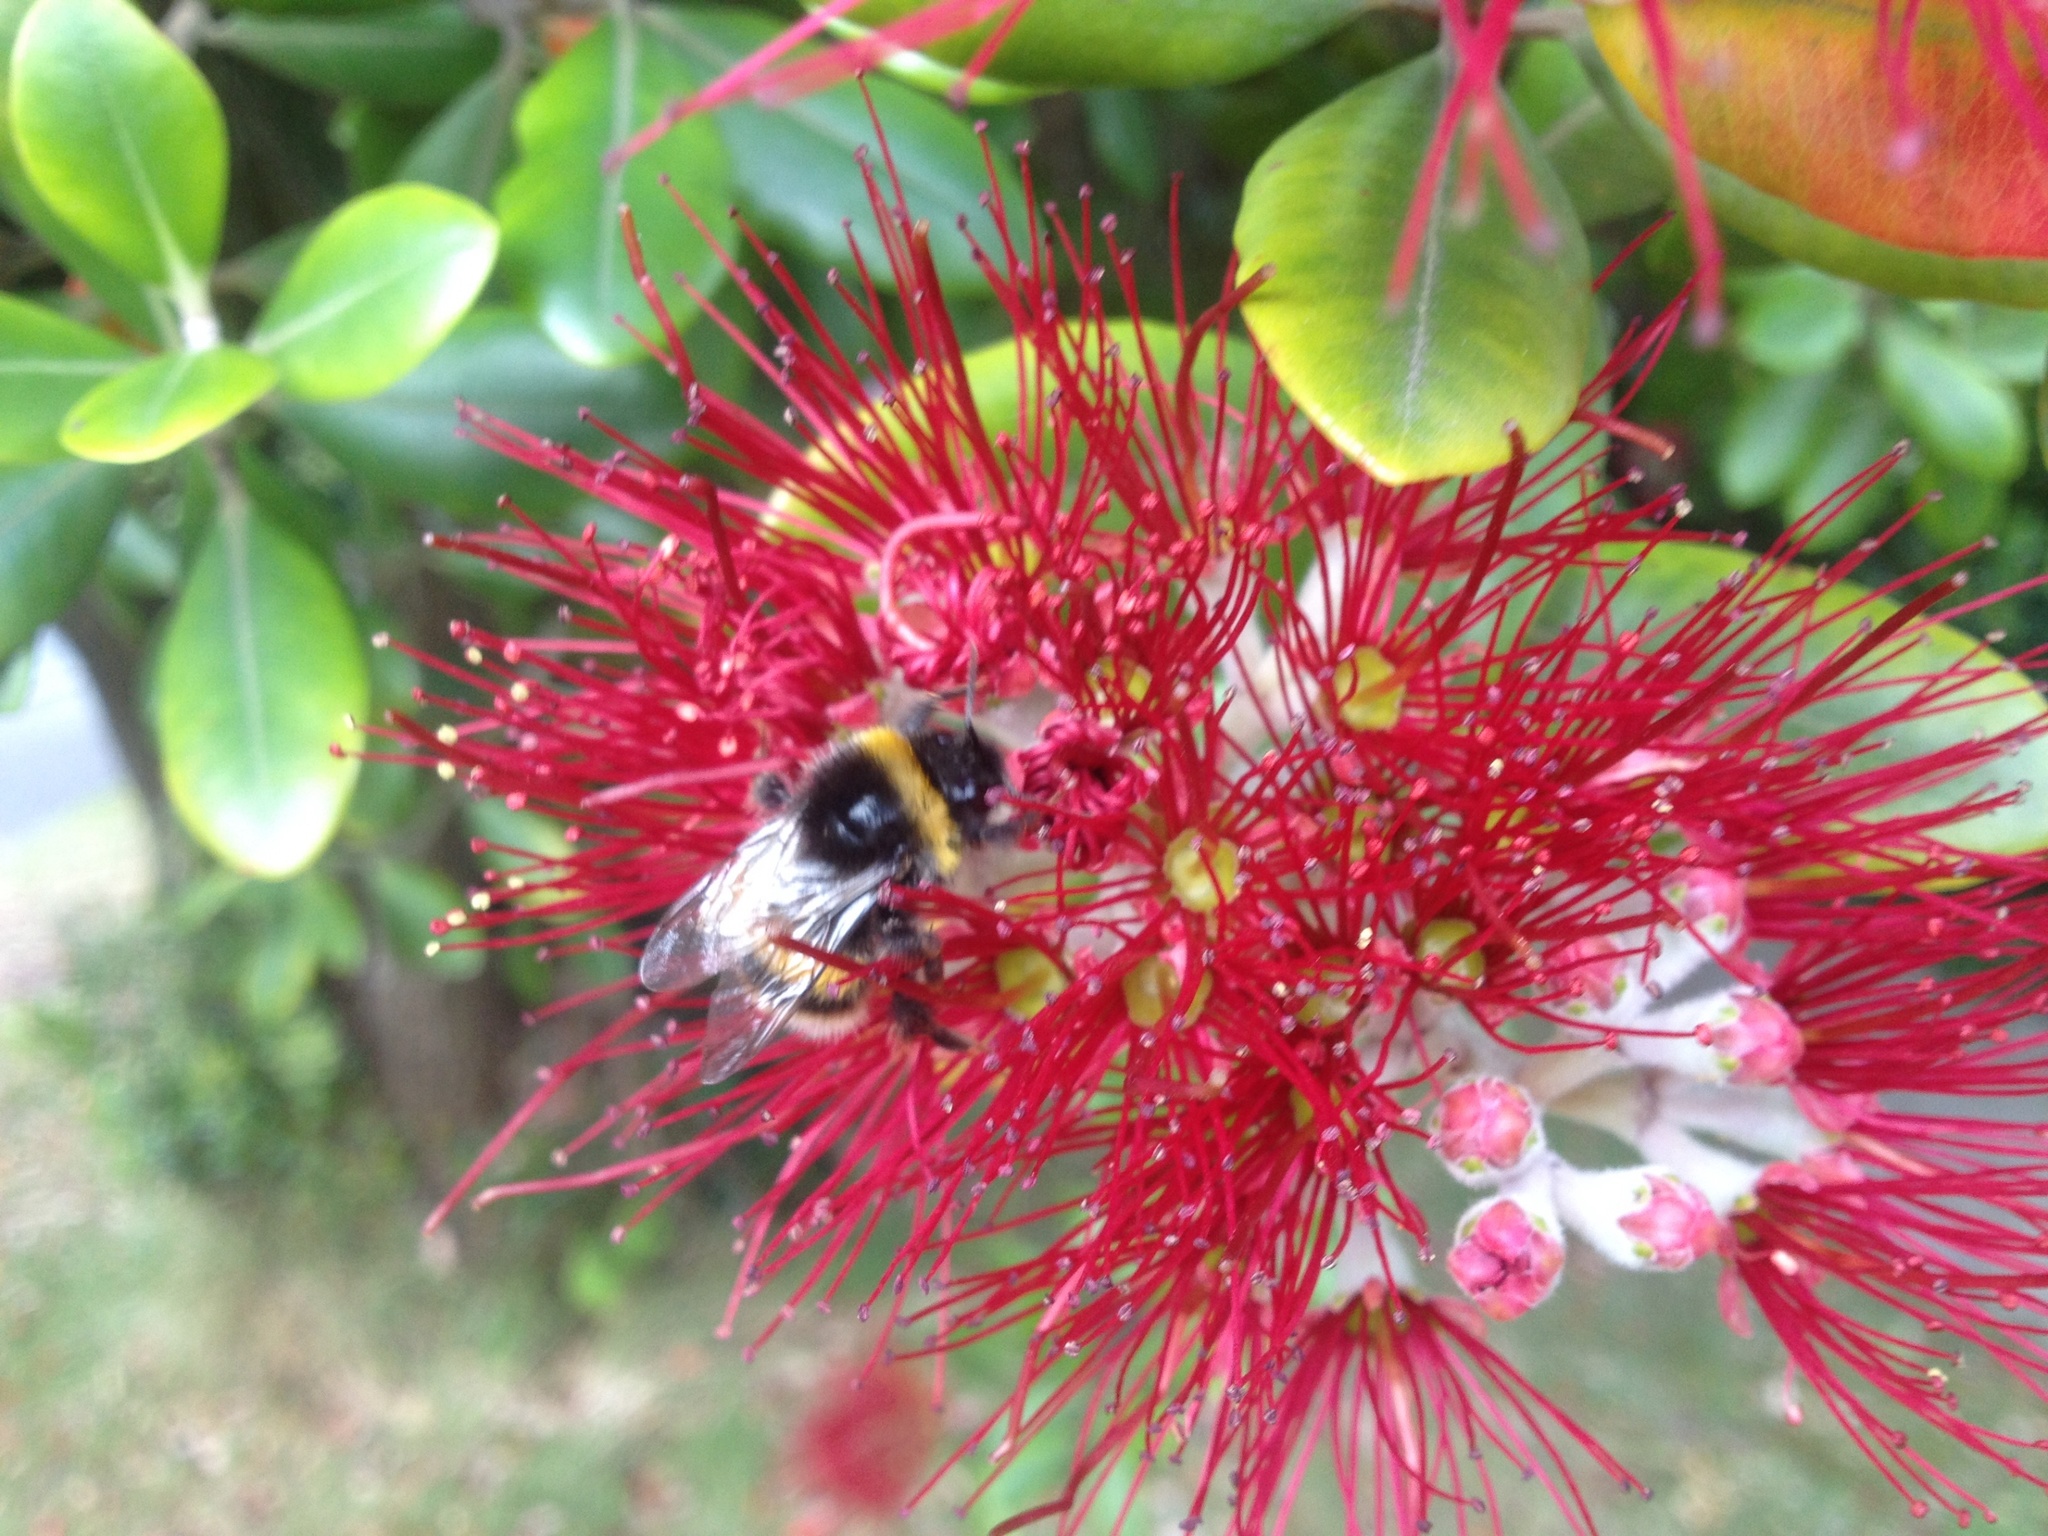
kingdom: Animalia
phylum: Arthropoda
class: Insecta
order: Hymenoptera
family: Apidae
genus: Bombus
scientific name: Bombus terrestris
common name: Buff-tailed bumblebee
